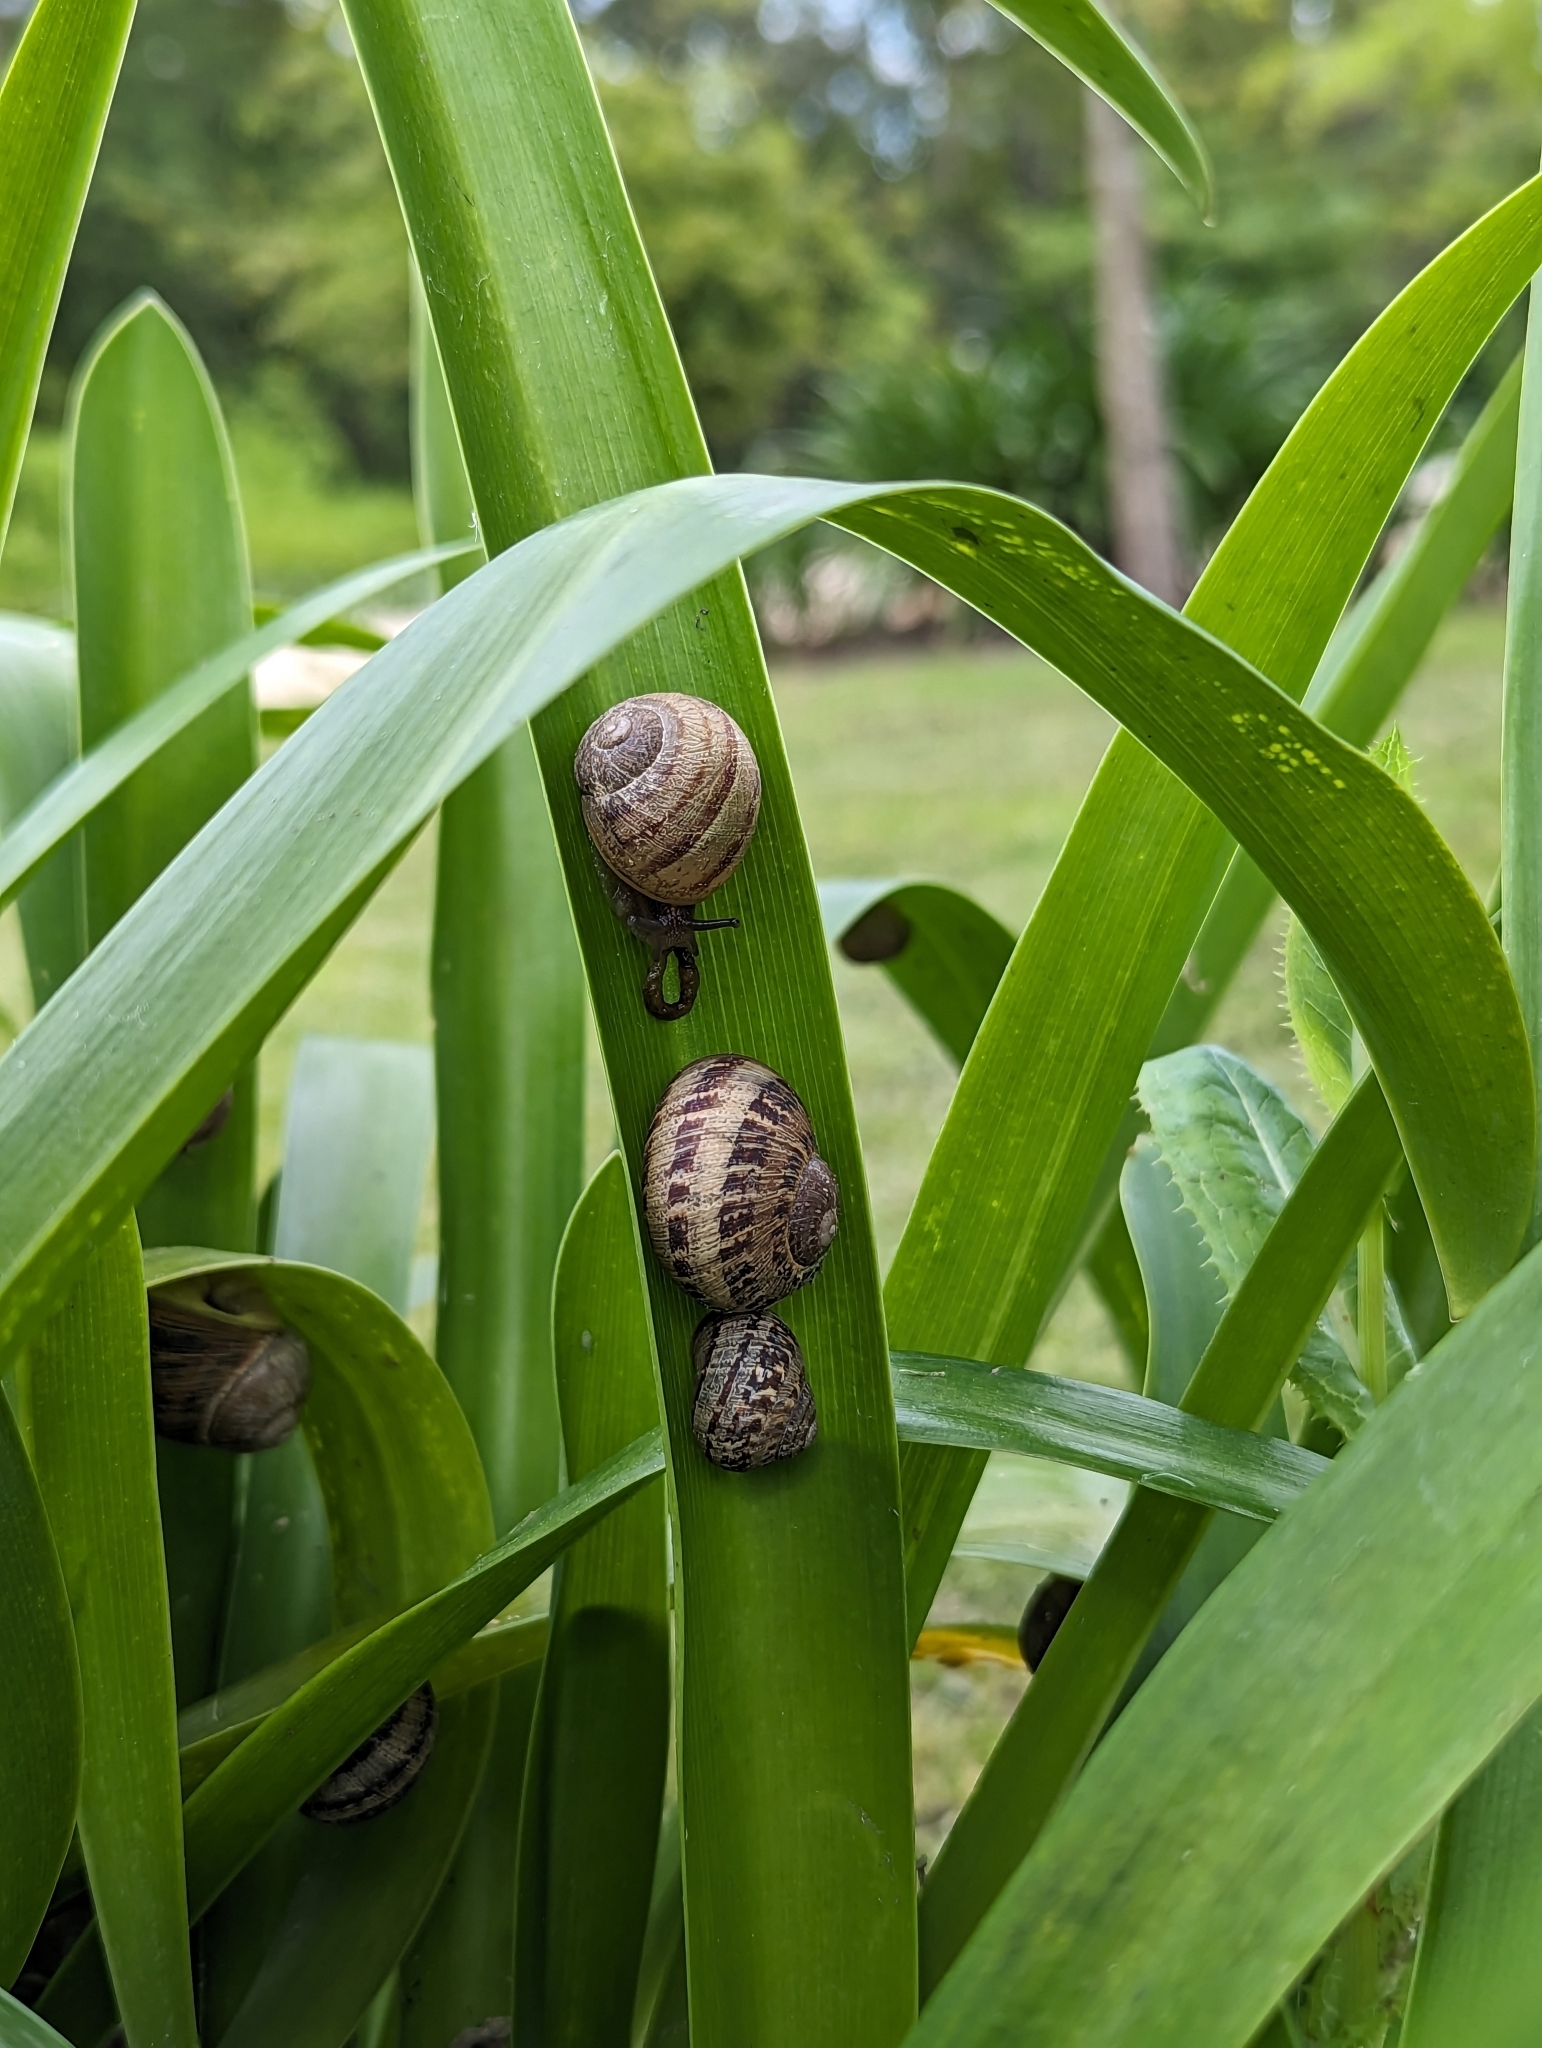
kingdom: Animalia
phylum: Mollusca
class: Gastropoda
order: Stylommatophora
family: Helicidae
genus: Cornu
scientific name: Cornu aspersum
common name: Brown garden snail
